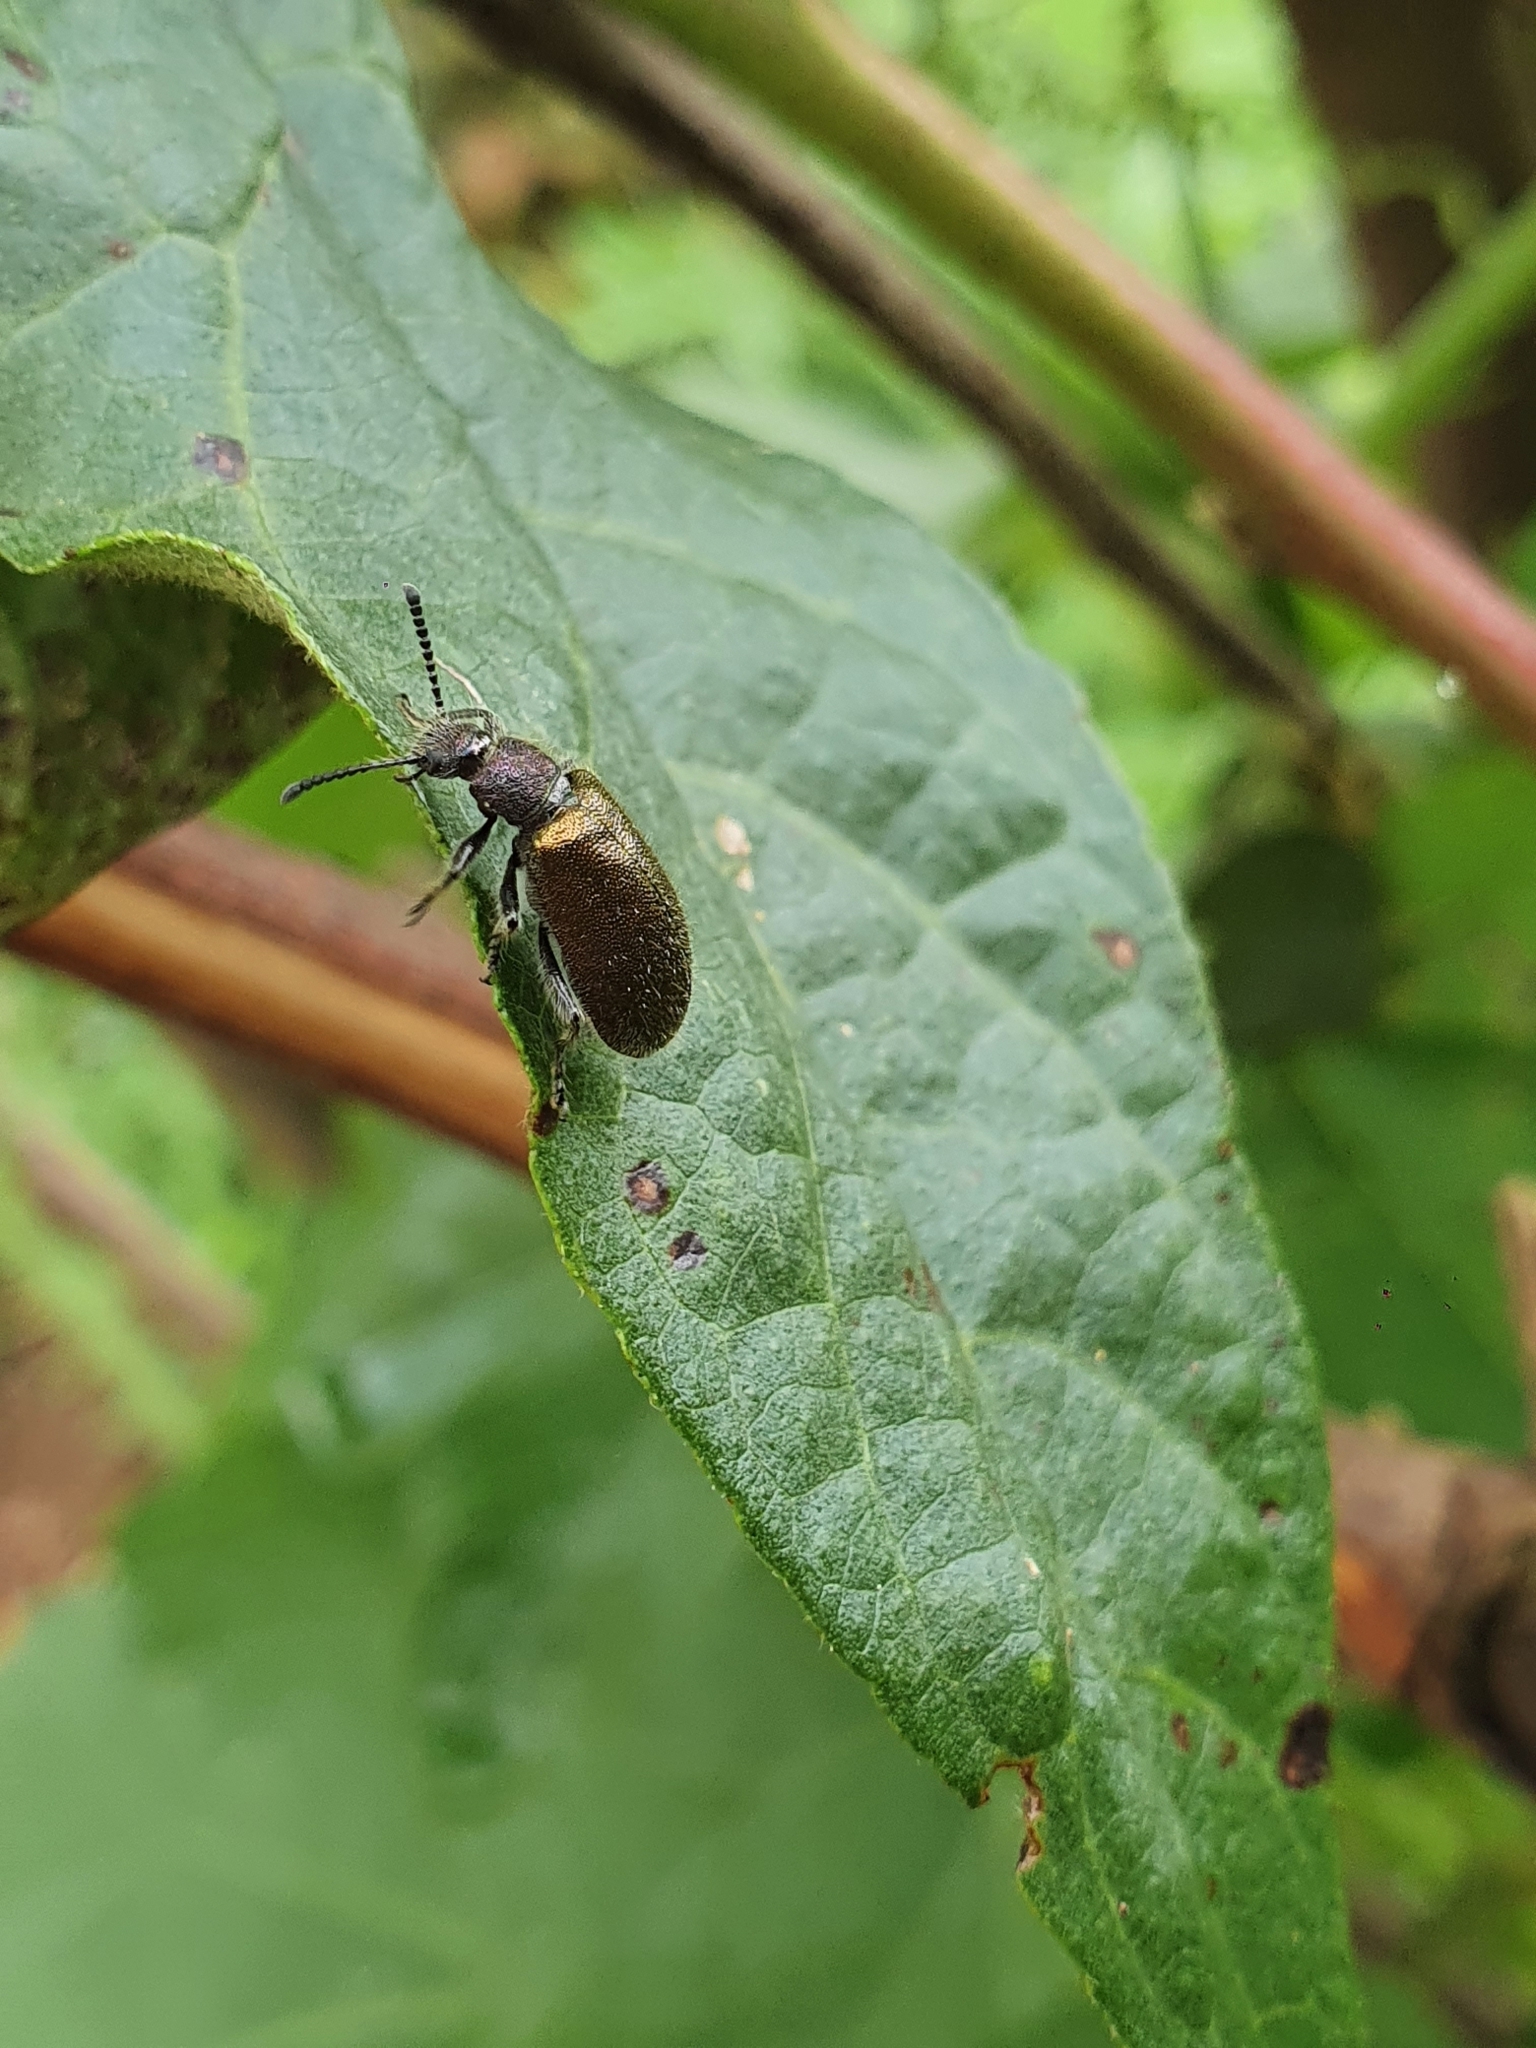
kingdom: Animalia
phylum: Arthropoda
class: Insecta
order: Coleoptera
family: Tenebrionidae
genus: Lagria
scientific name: Lagria villosa
